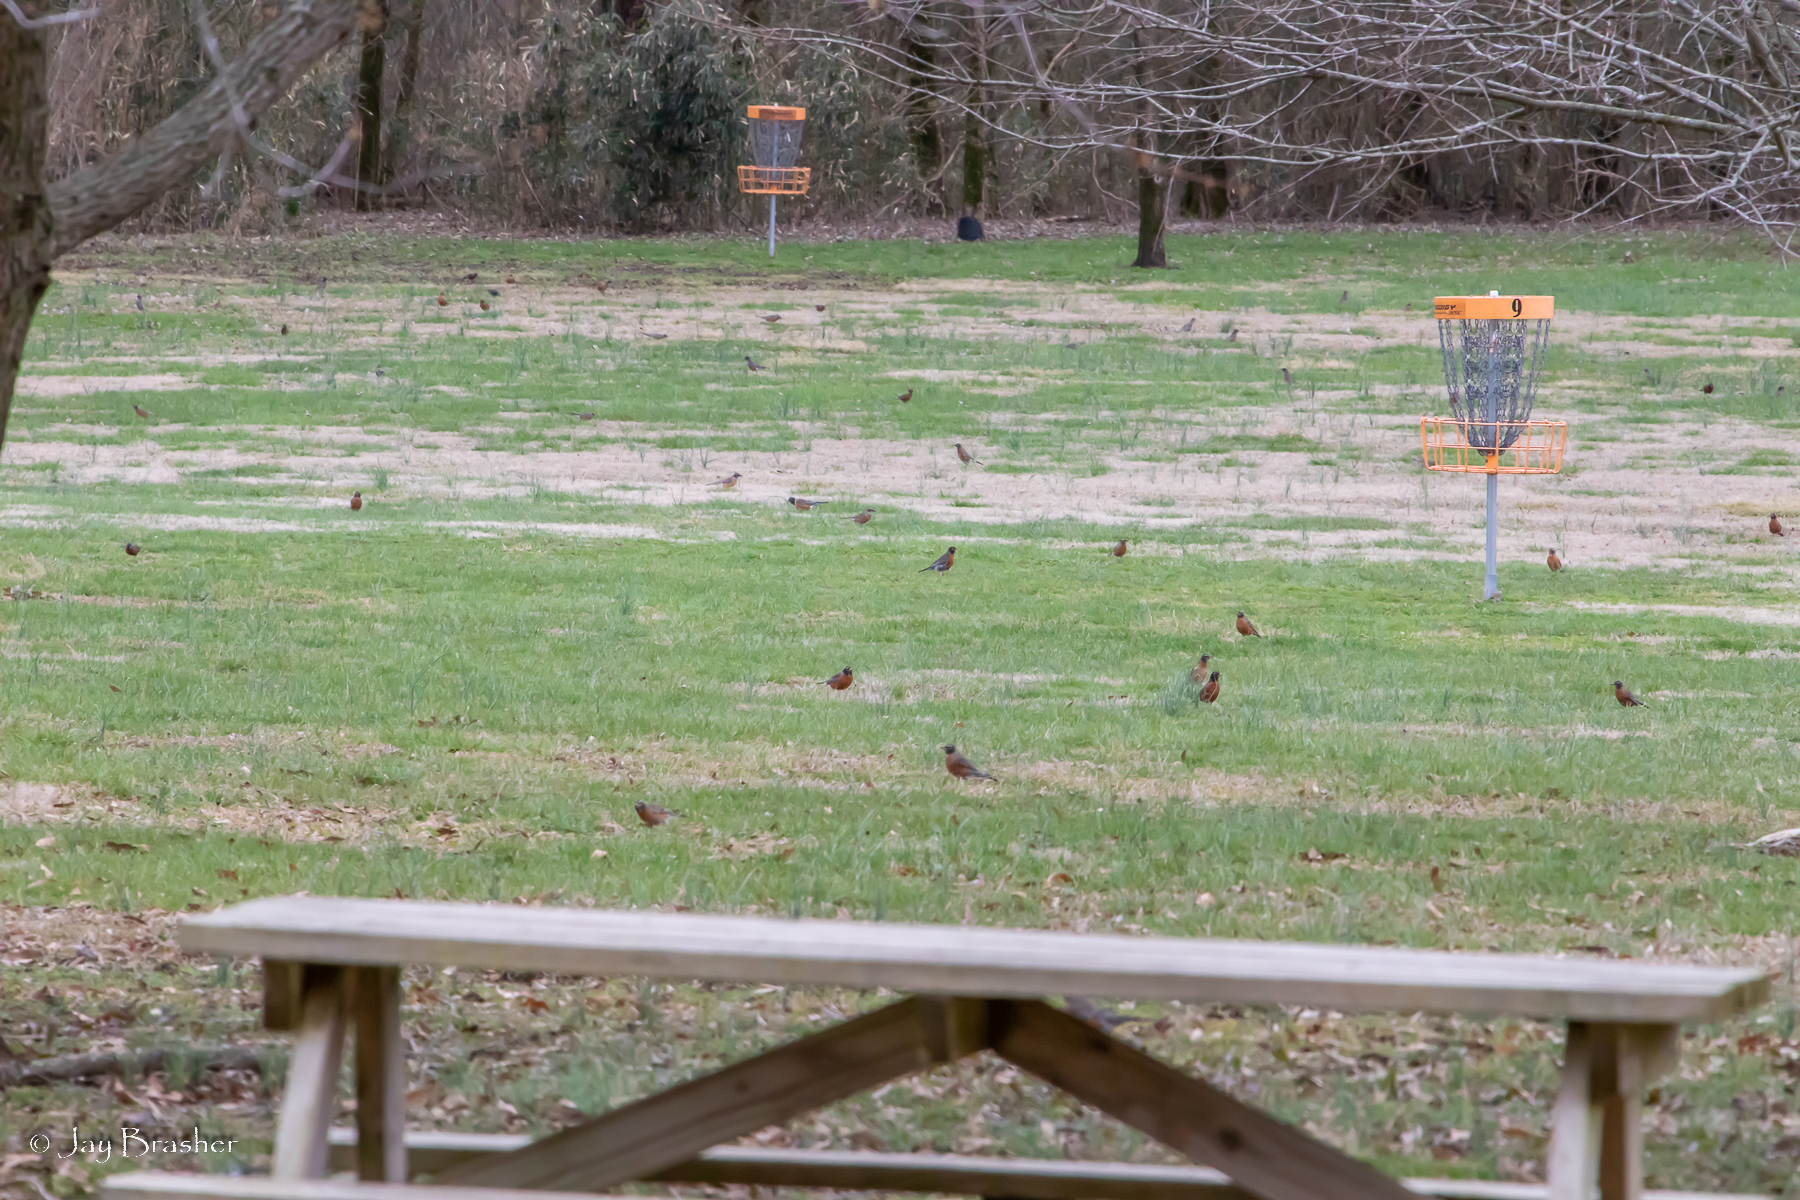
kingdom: Animalia
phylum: Chordata
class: Aves
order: Passeriformes
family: Turdidae
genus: Turdus
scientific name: Turdus migratorius
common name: American robin
